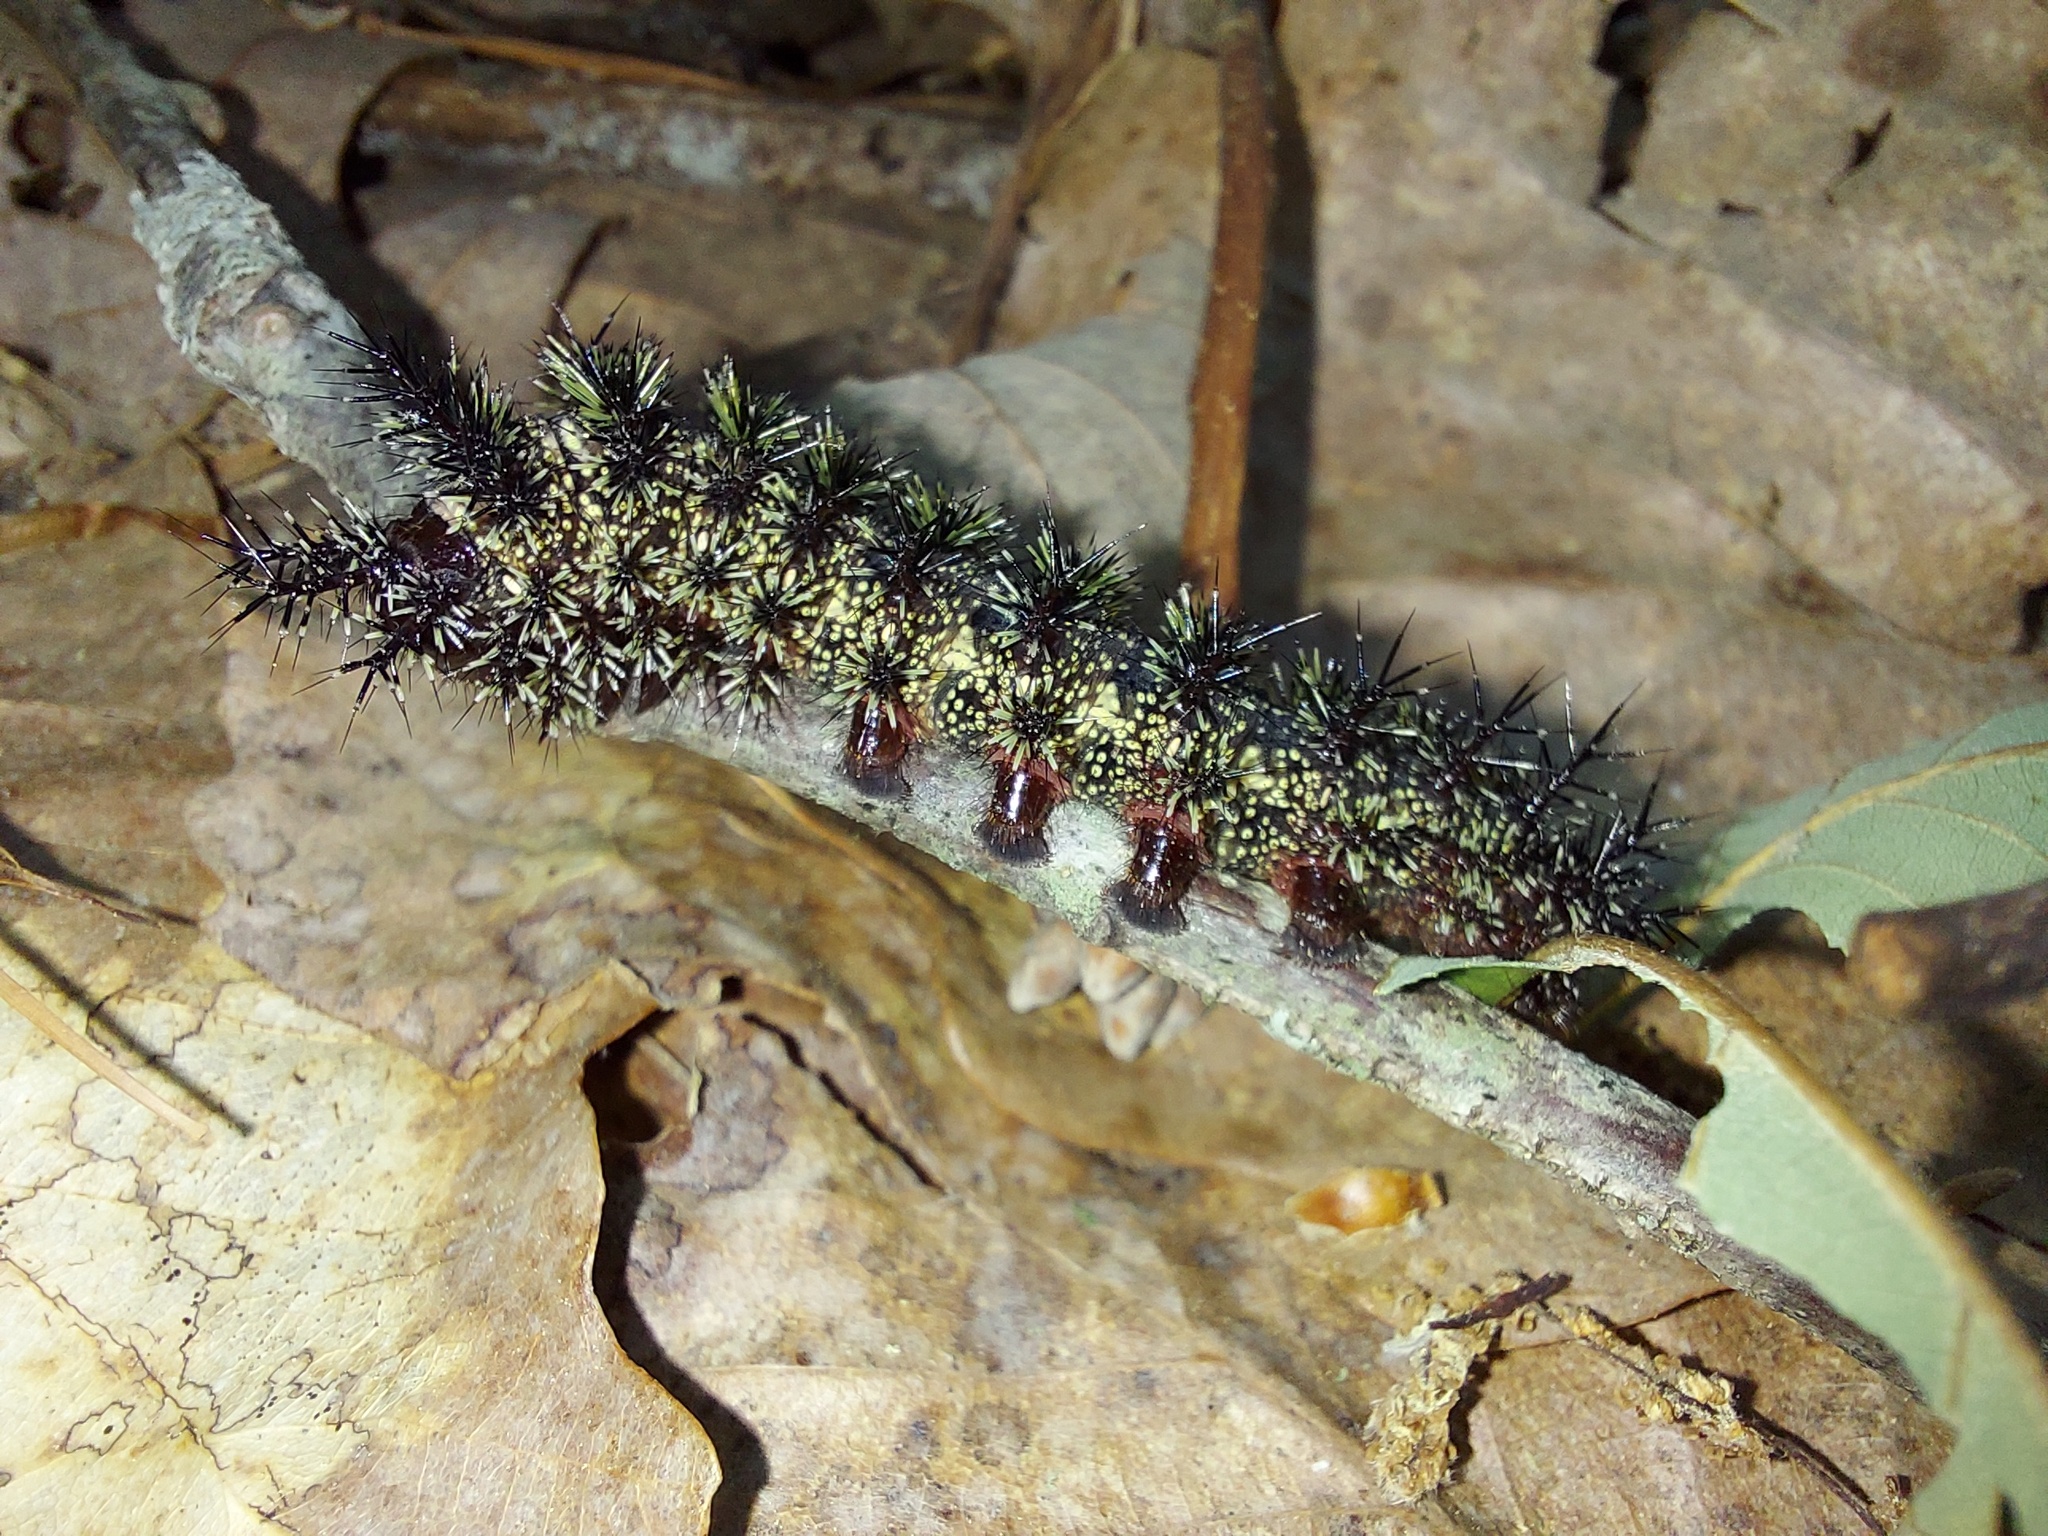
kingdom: Animalia
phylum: Arthropoda
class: Insecta
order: Lepidoptera
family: Saturniidae
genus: Hemileuca
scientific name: Hemileuca maia
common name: Eastern buckmoth
